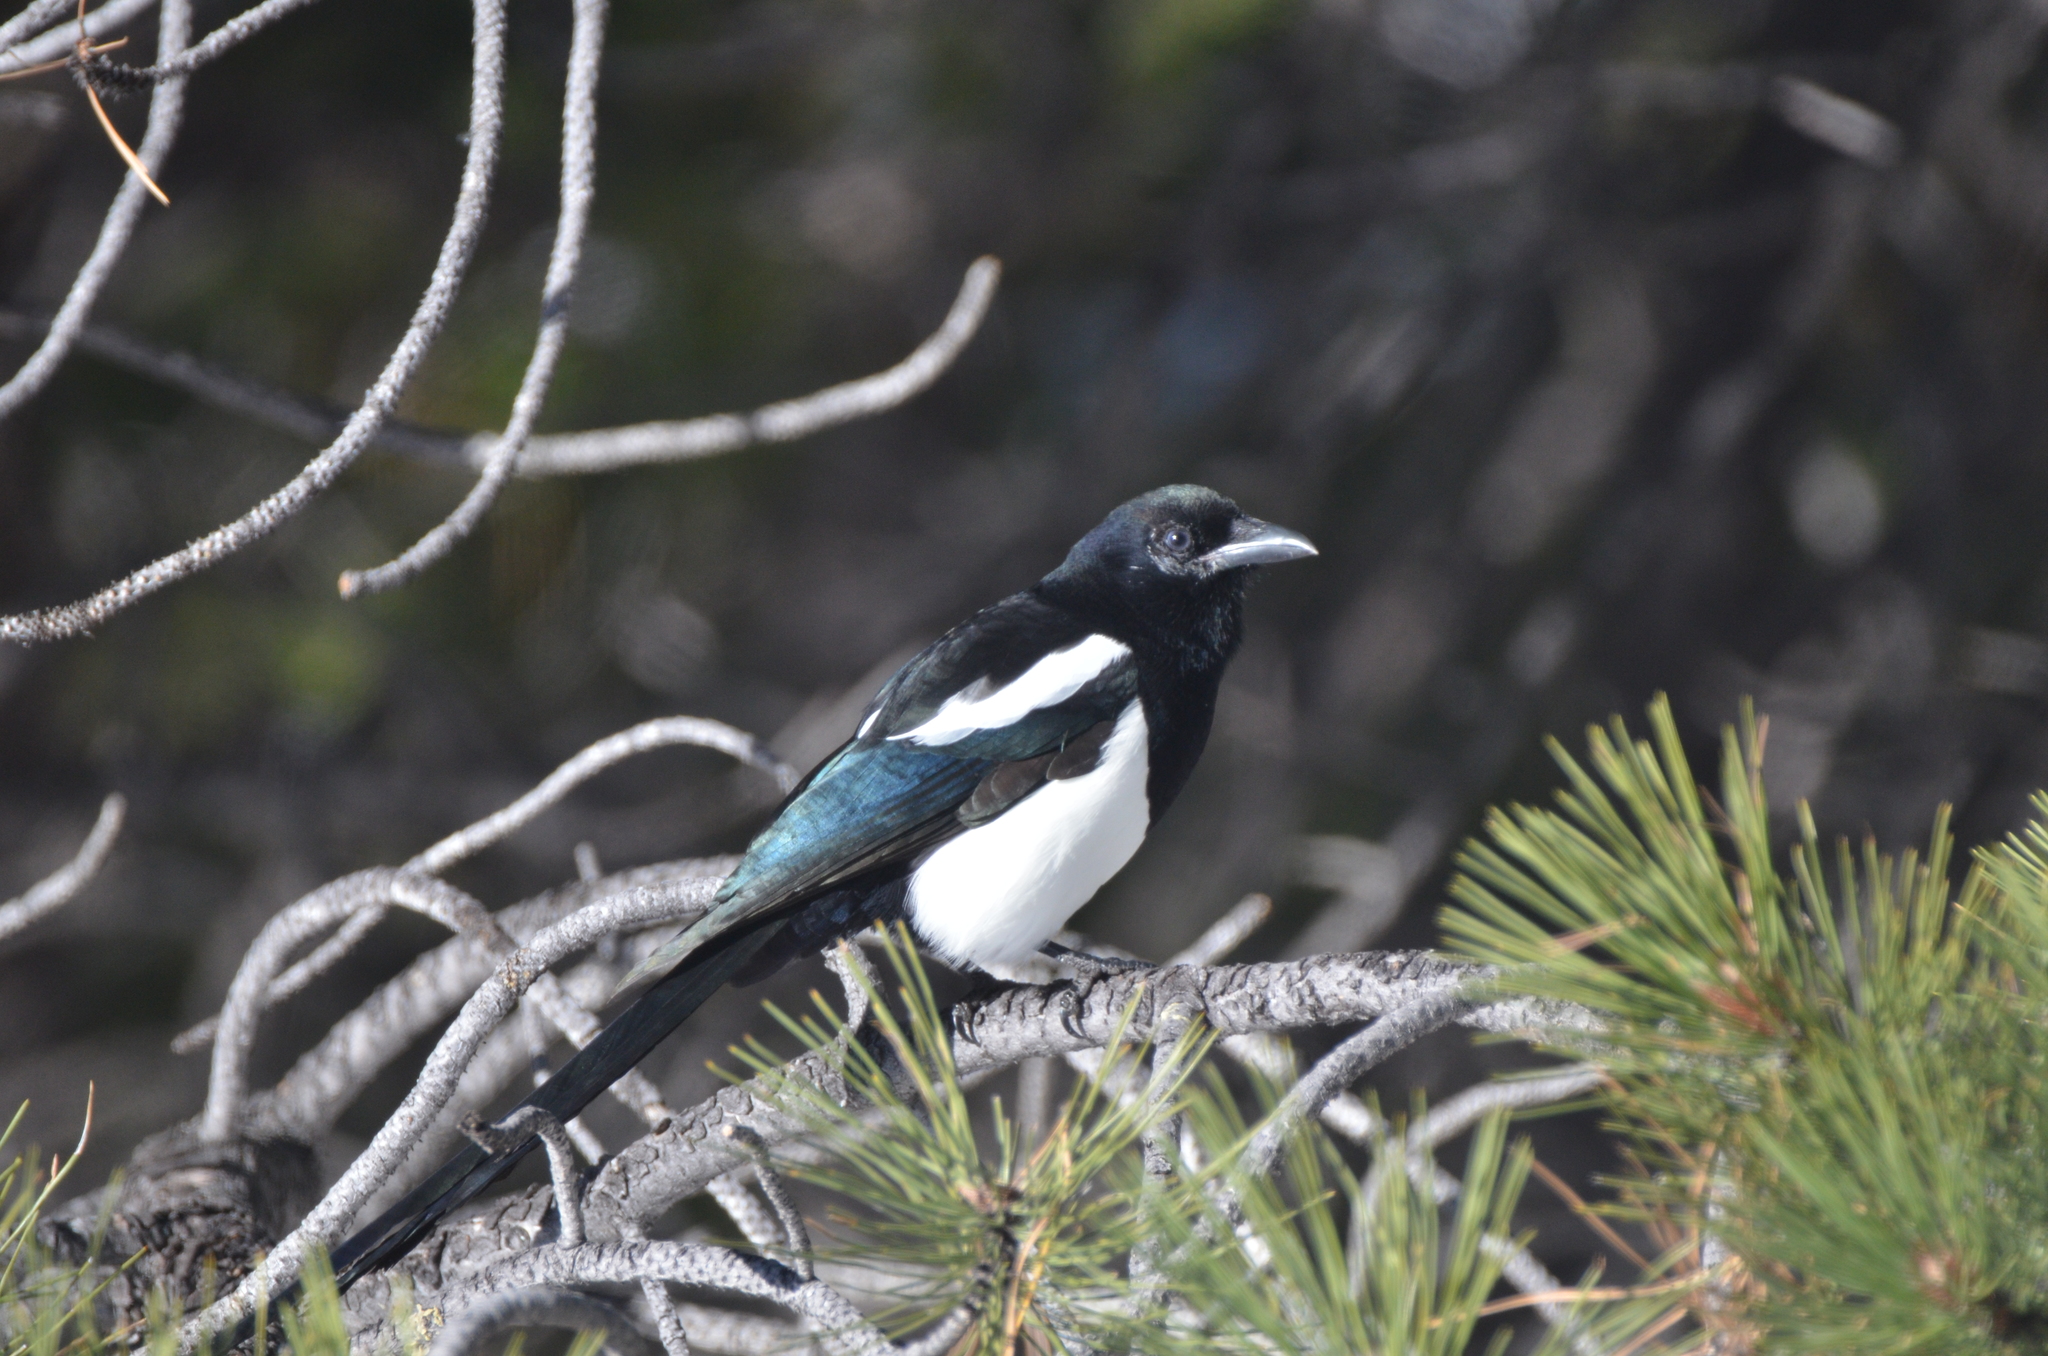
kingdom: Animalia
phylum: Chordata
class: Aves
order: Passeriformes
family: Corvidae
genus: Pica
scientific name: Pica hudsonia
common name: Black-billed magpie
